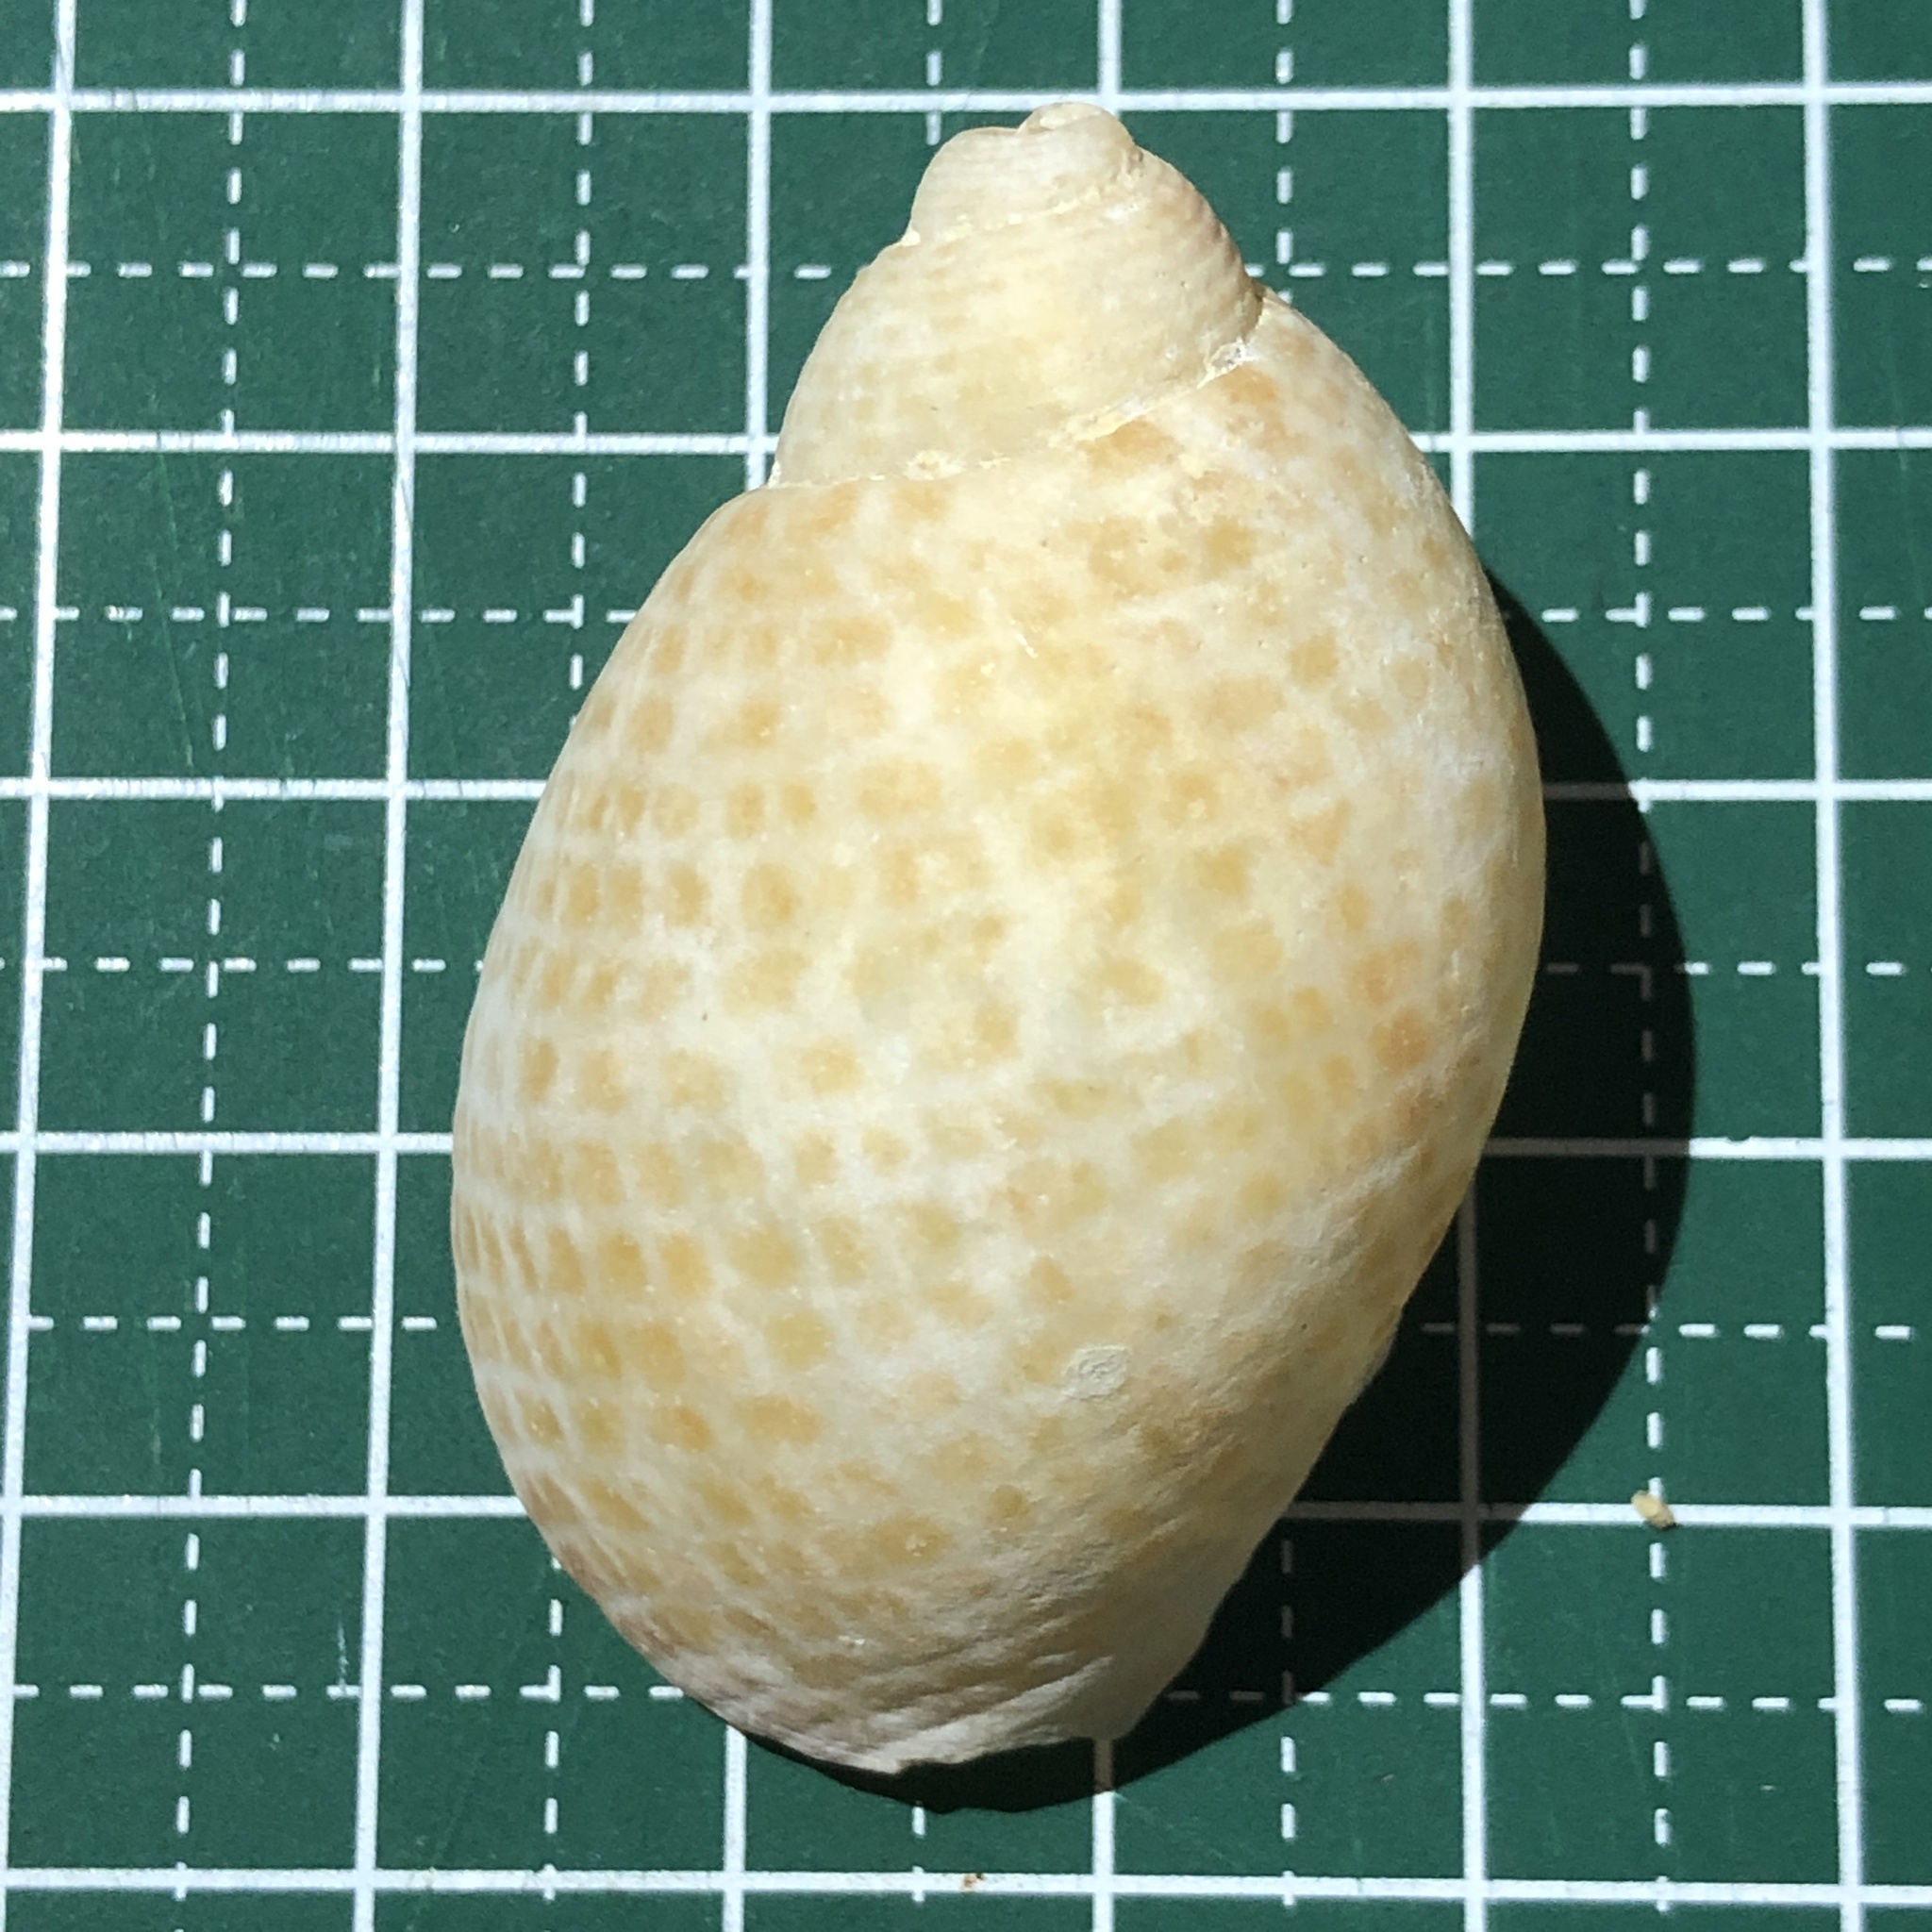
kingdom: Animalia
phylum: Mollusca
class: Gastropoda
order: Littorinimorpha
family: Tonnidae
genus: Tonna
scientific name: Tonna perdix
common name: Pacific partridge tun
